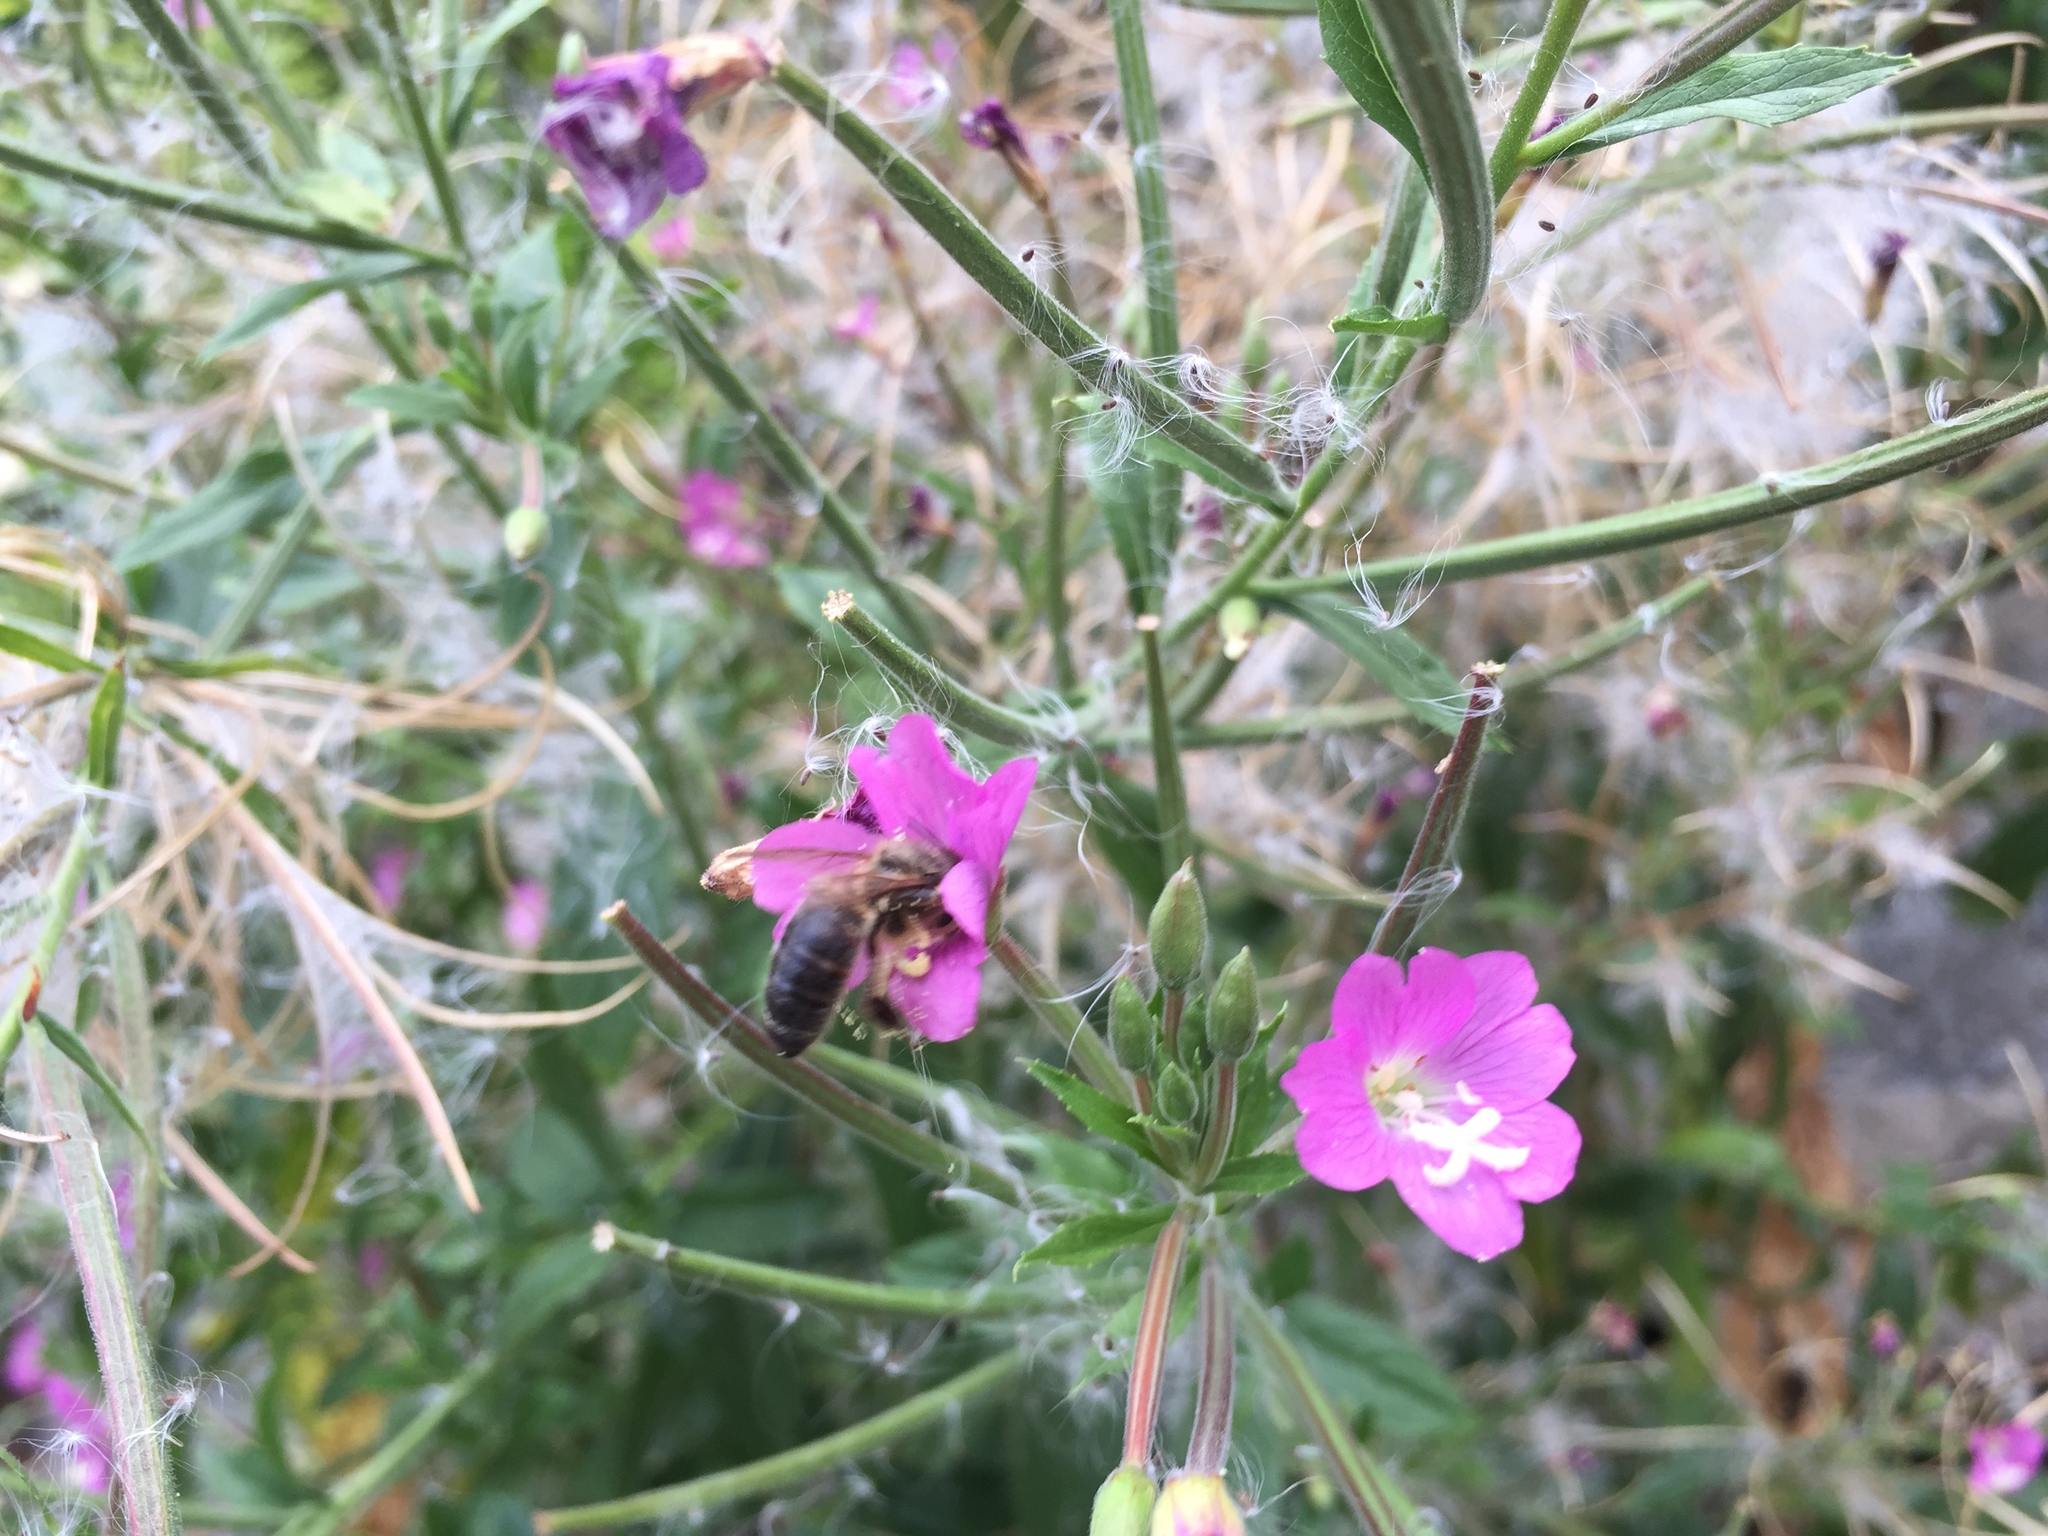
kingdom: Animalia
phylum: Arthropoda
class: Insecta
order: Hymenoptera
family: Apidae
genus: Apis
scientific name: Apis mellifera
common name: Honey bee
